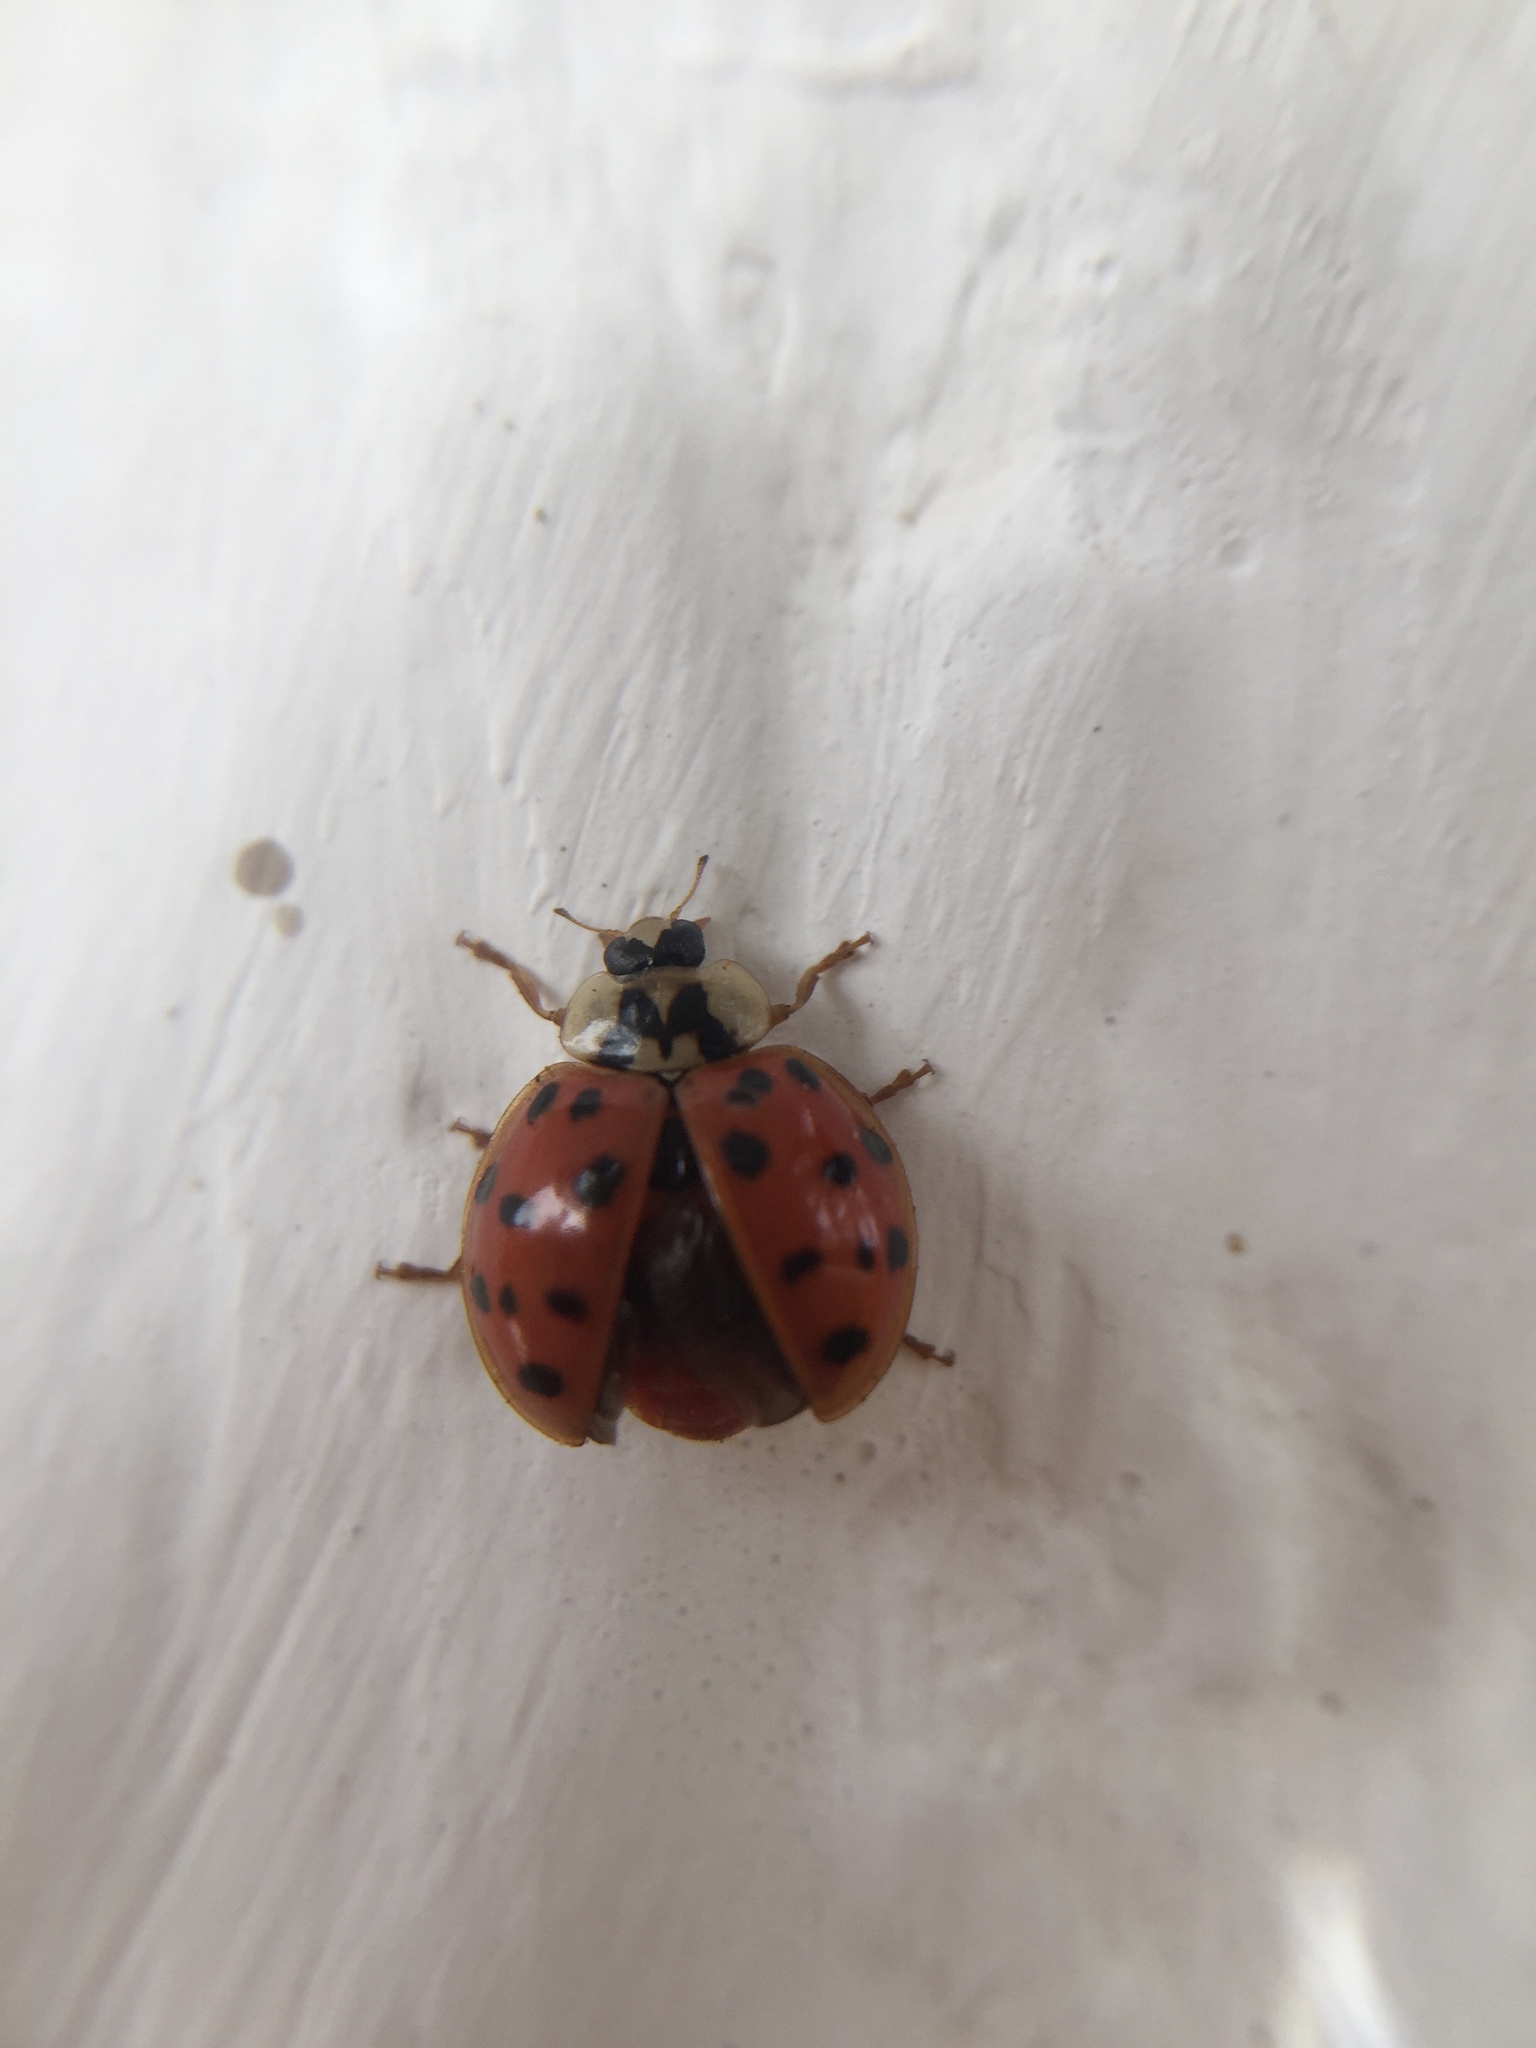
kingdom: Animalia
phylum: Arthropoda
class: Insecta
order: Coleoptera
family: Coccinellidae
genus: Harmonia
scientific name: Harmonia axyridis
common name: Harlequin ladybird
